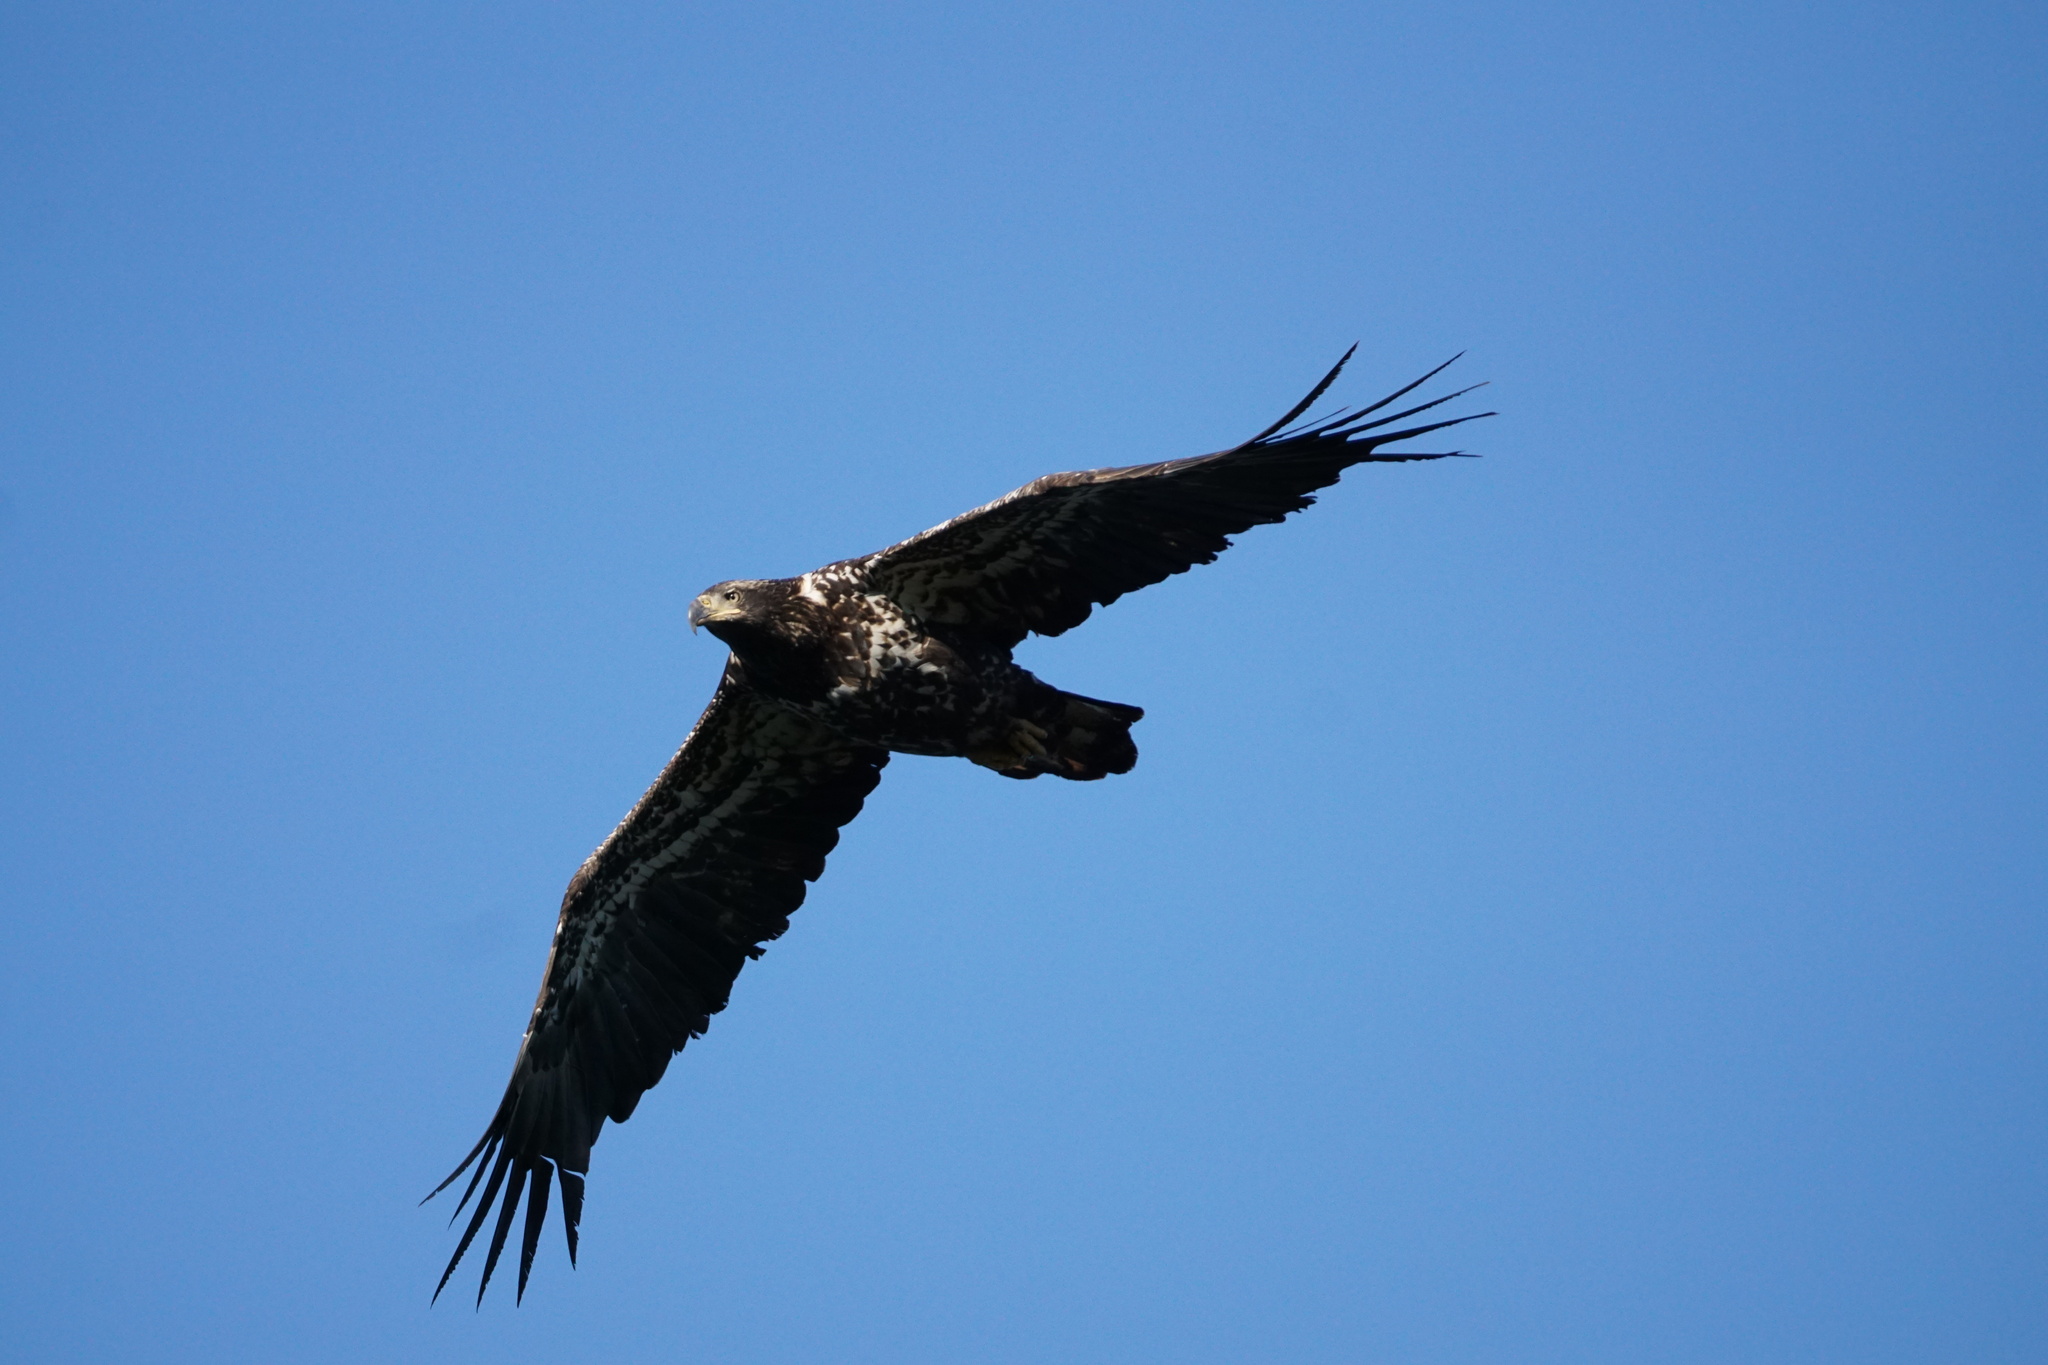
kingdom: Animalia
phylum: Chordata
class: Aves
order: Accipitriformes
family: Accipitridae
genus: Haliaeetus
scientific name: Haliaeetus leucocephalus
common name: Bald eagle
